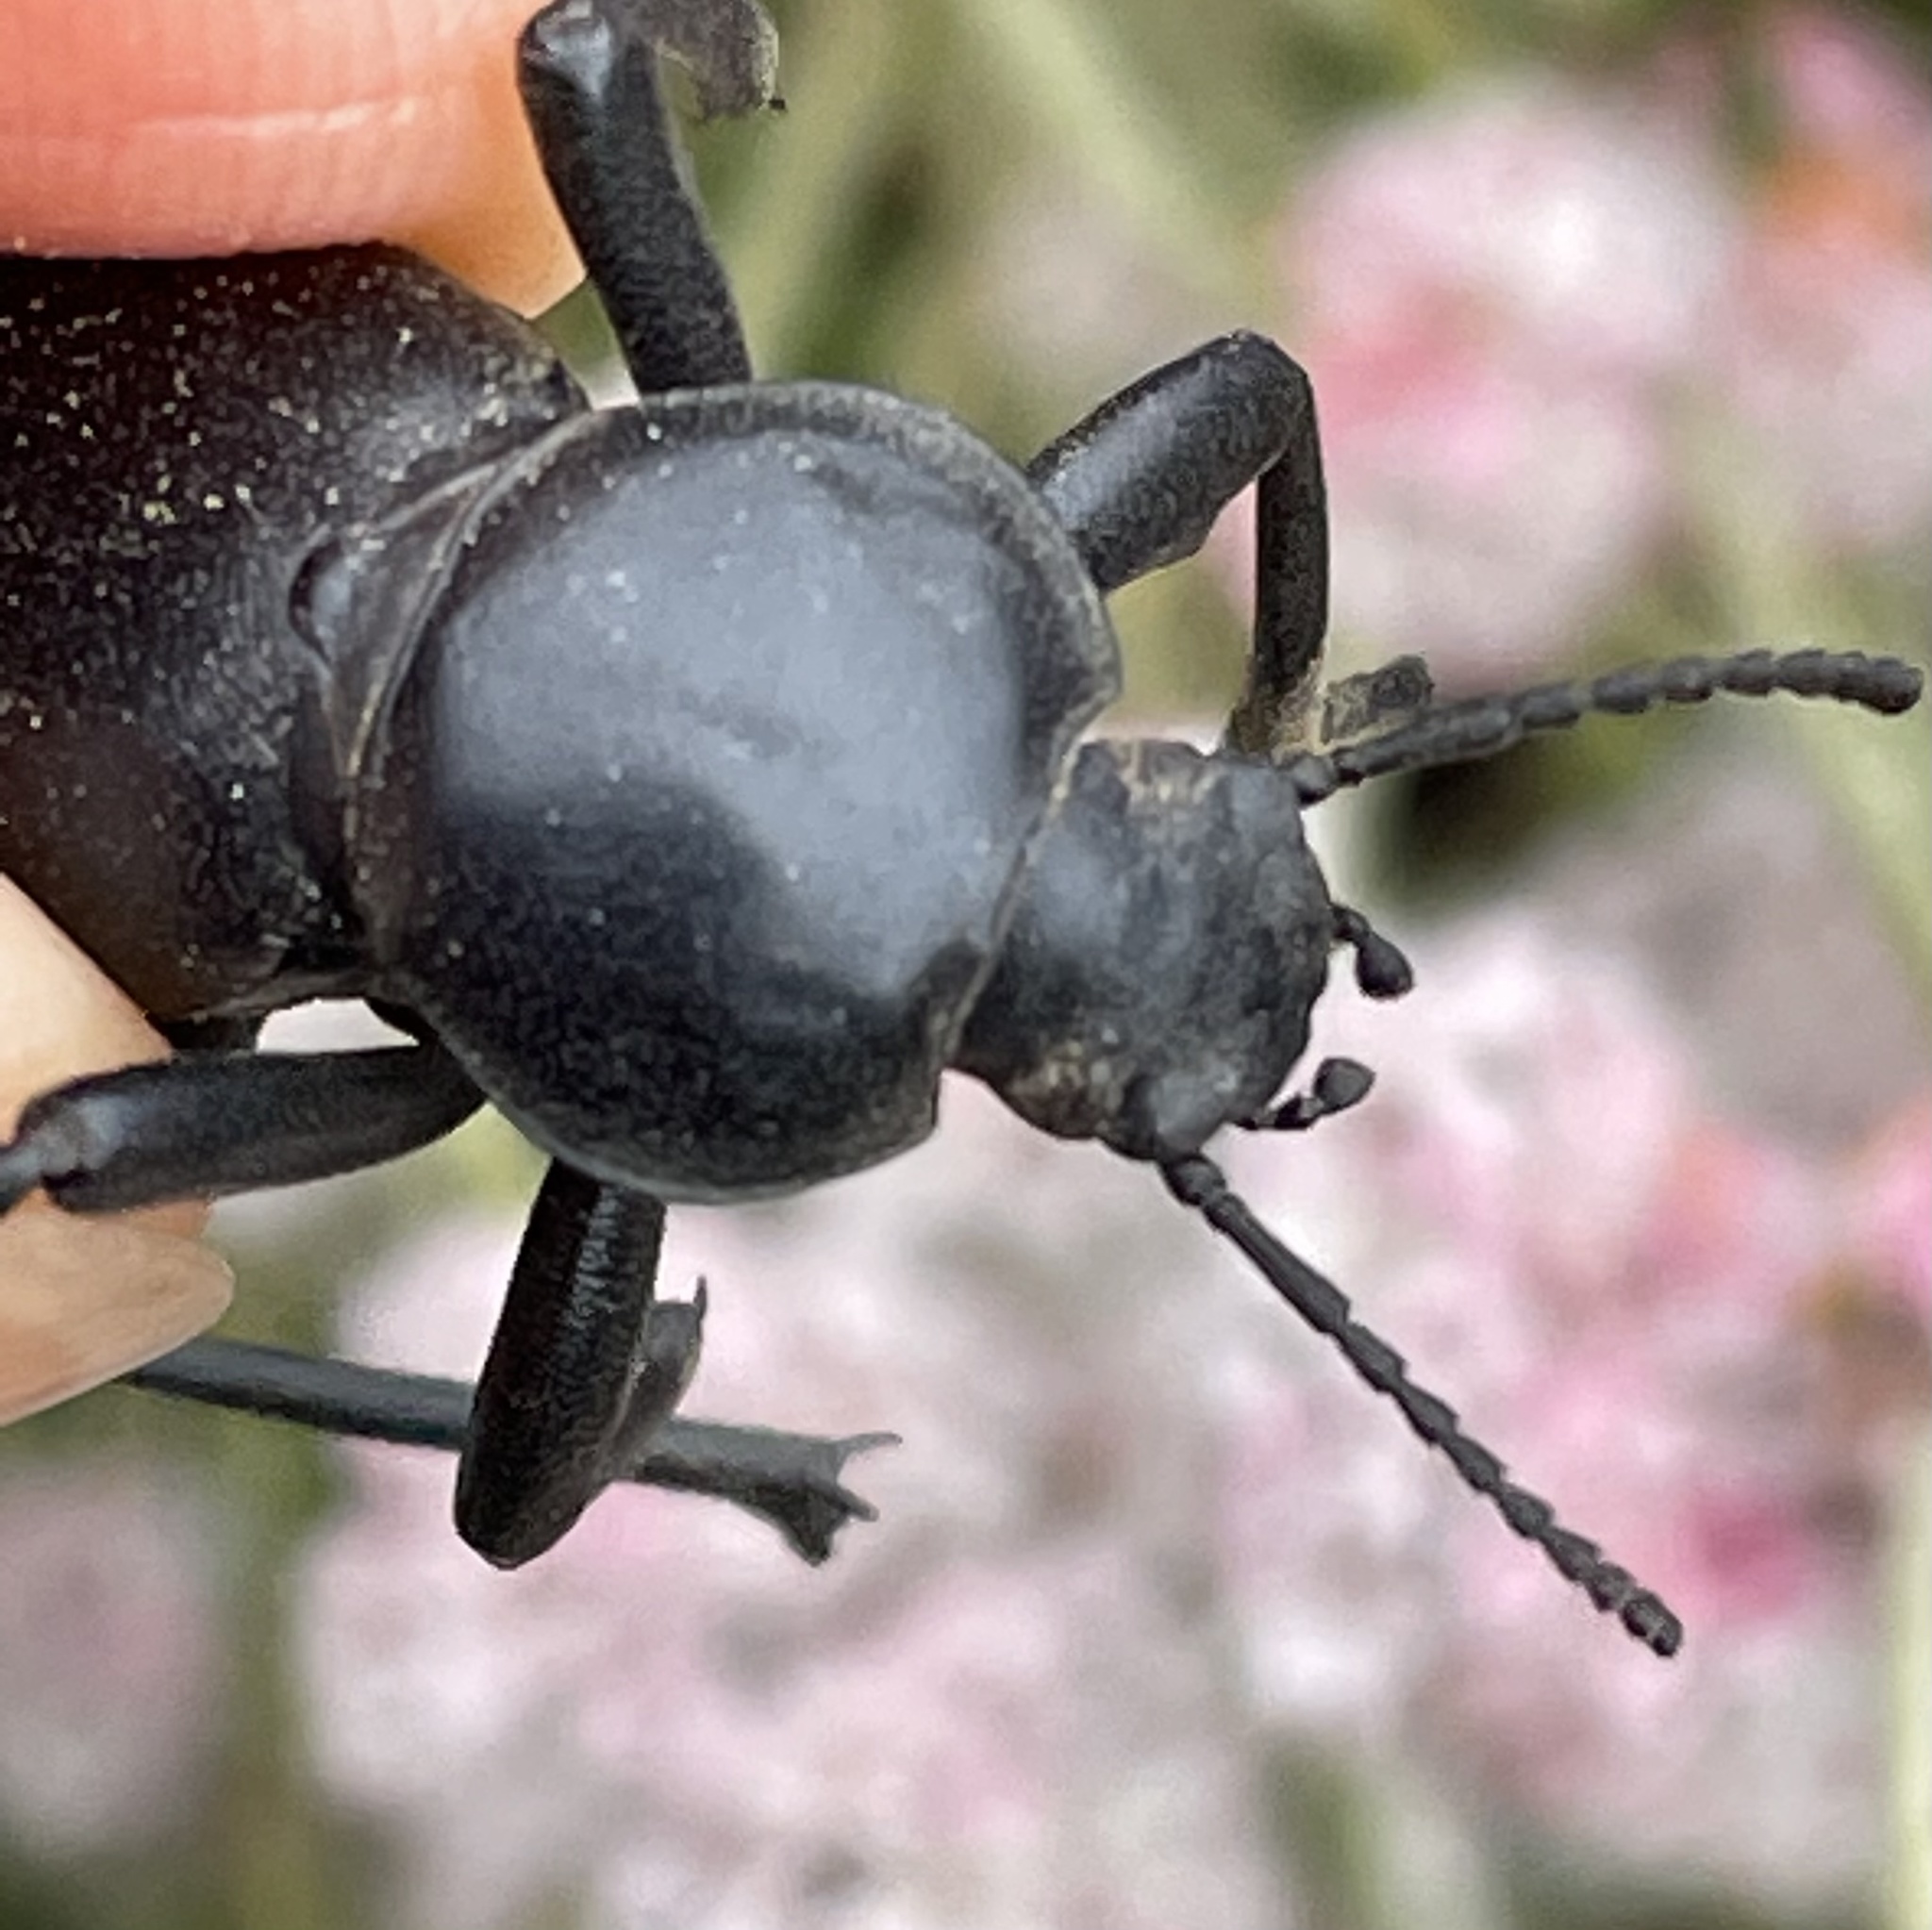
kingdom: Animalia
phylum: Arthropoda
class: Insecta
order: Coleoptera
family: Tenebrionidae
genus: Eleodes
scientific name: Eleodes grandicollis
